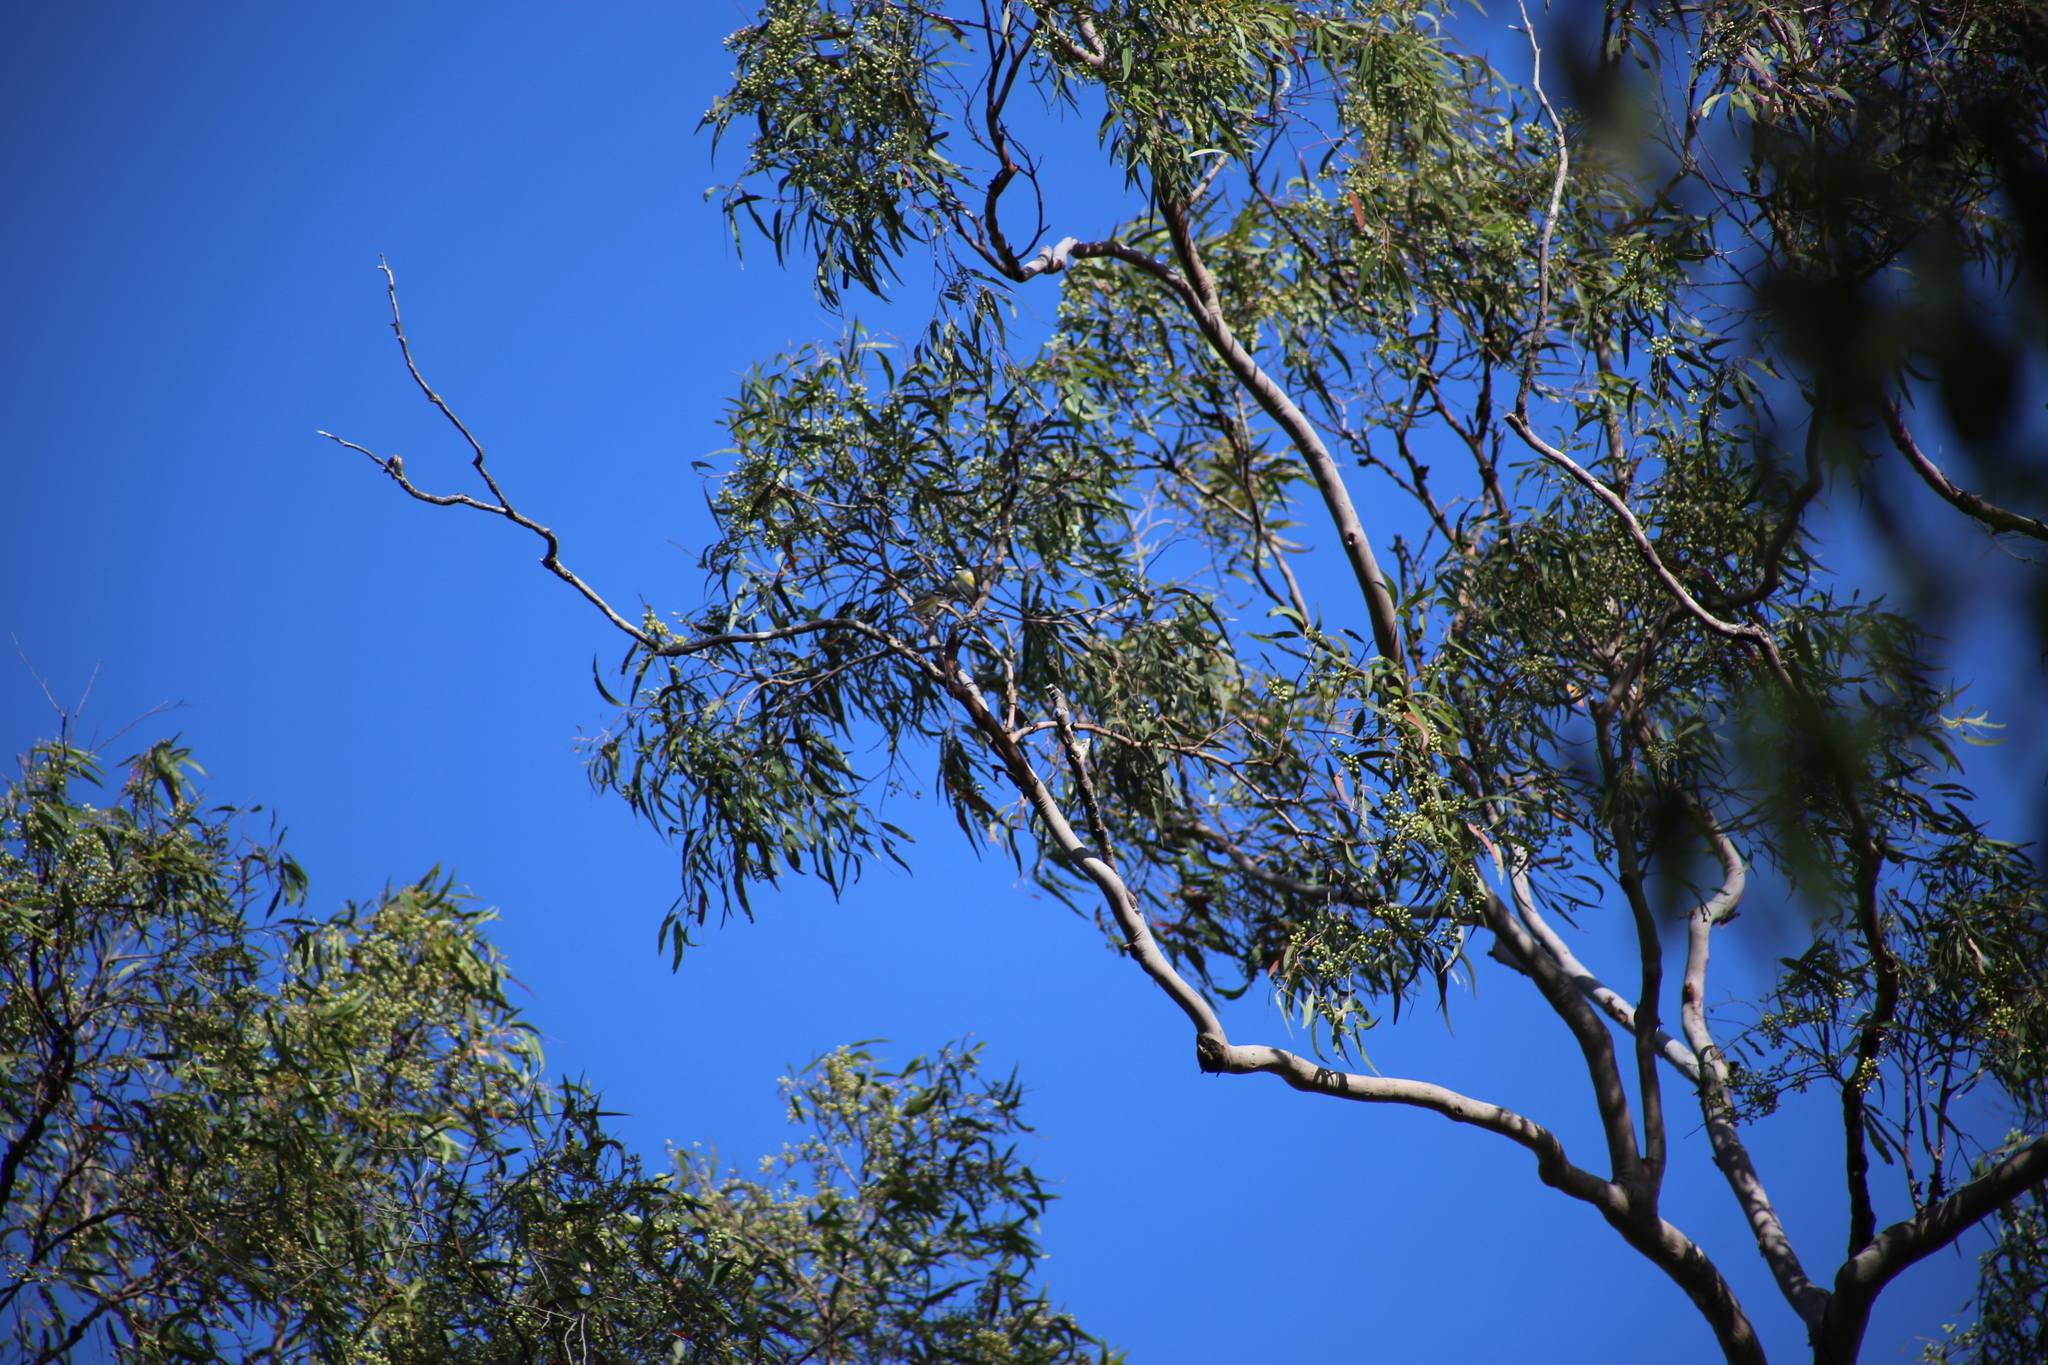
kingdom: Animalia
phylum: Chordata
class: Aves
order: Passeriformes
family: Pardalotidae
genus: Pardalotus
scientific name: Pardalotus striatus
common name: Striated pardalote
